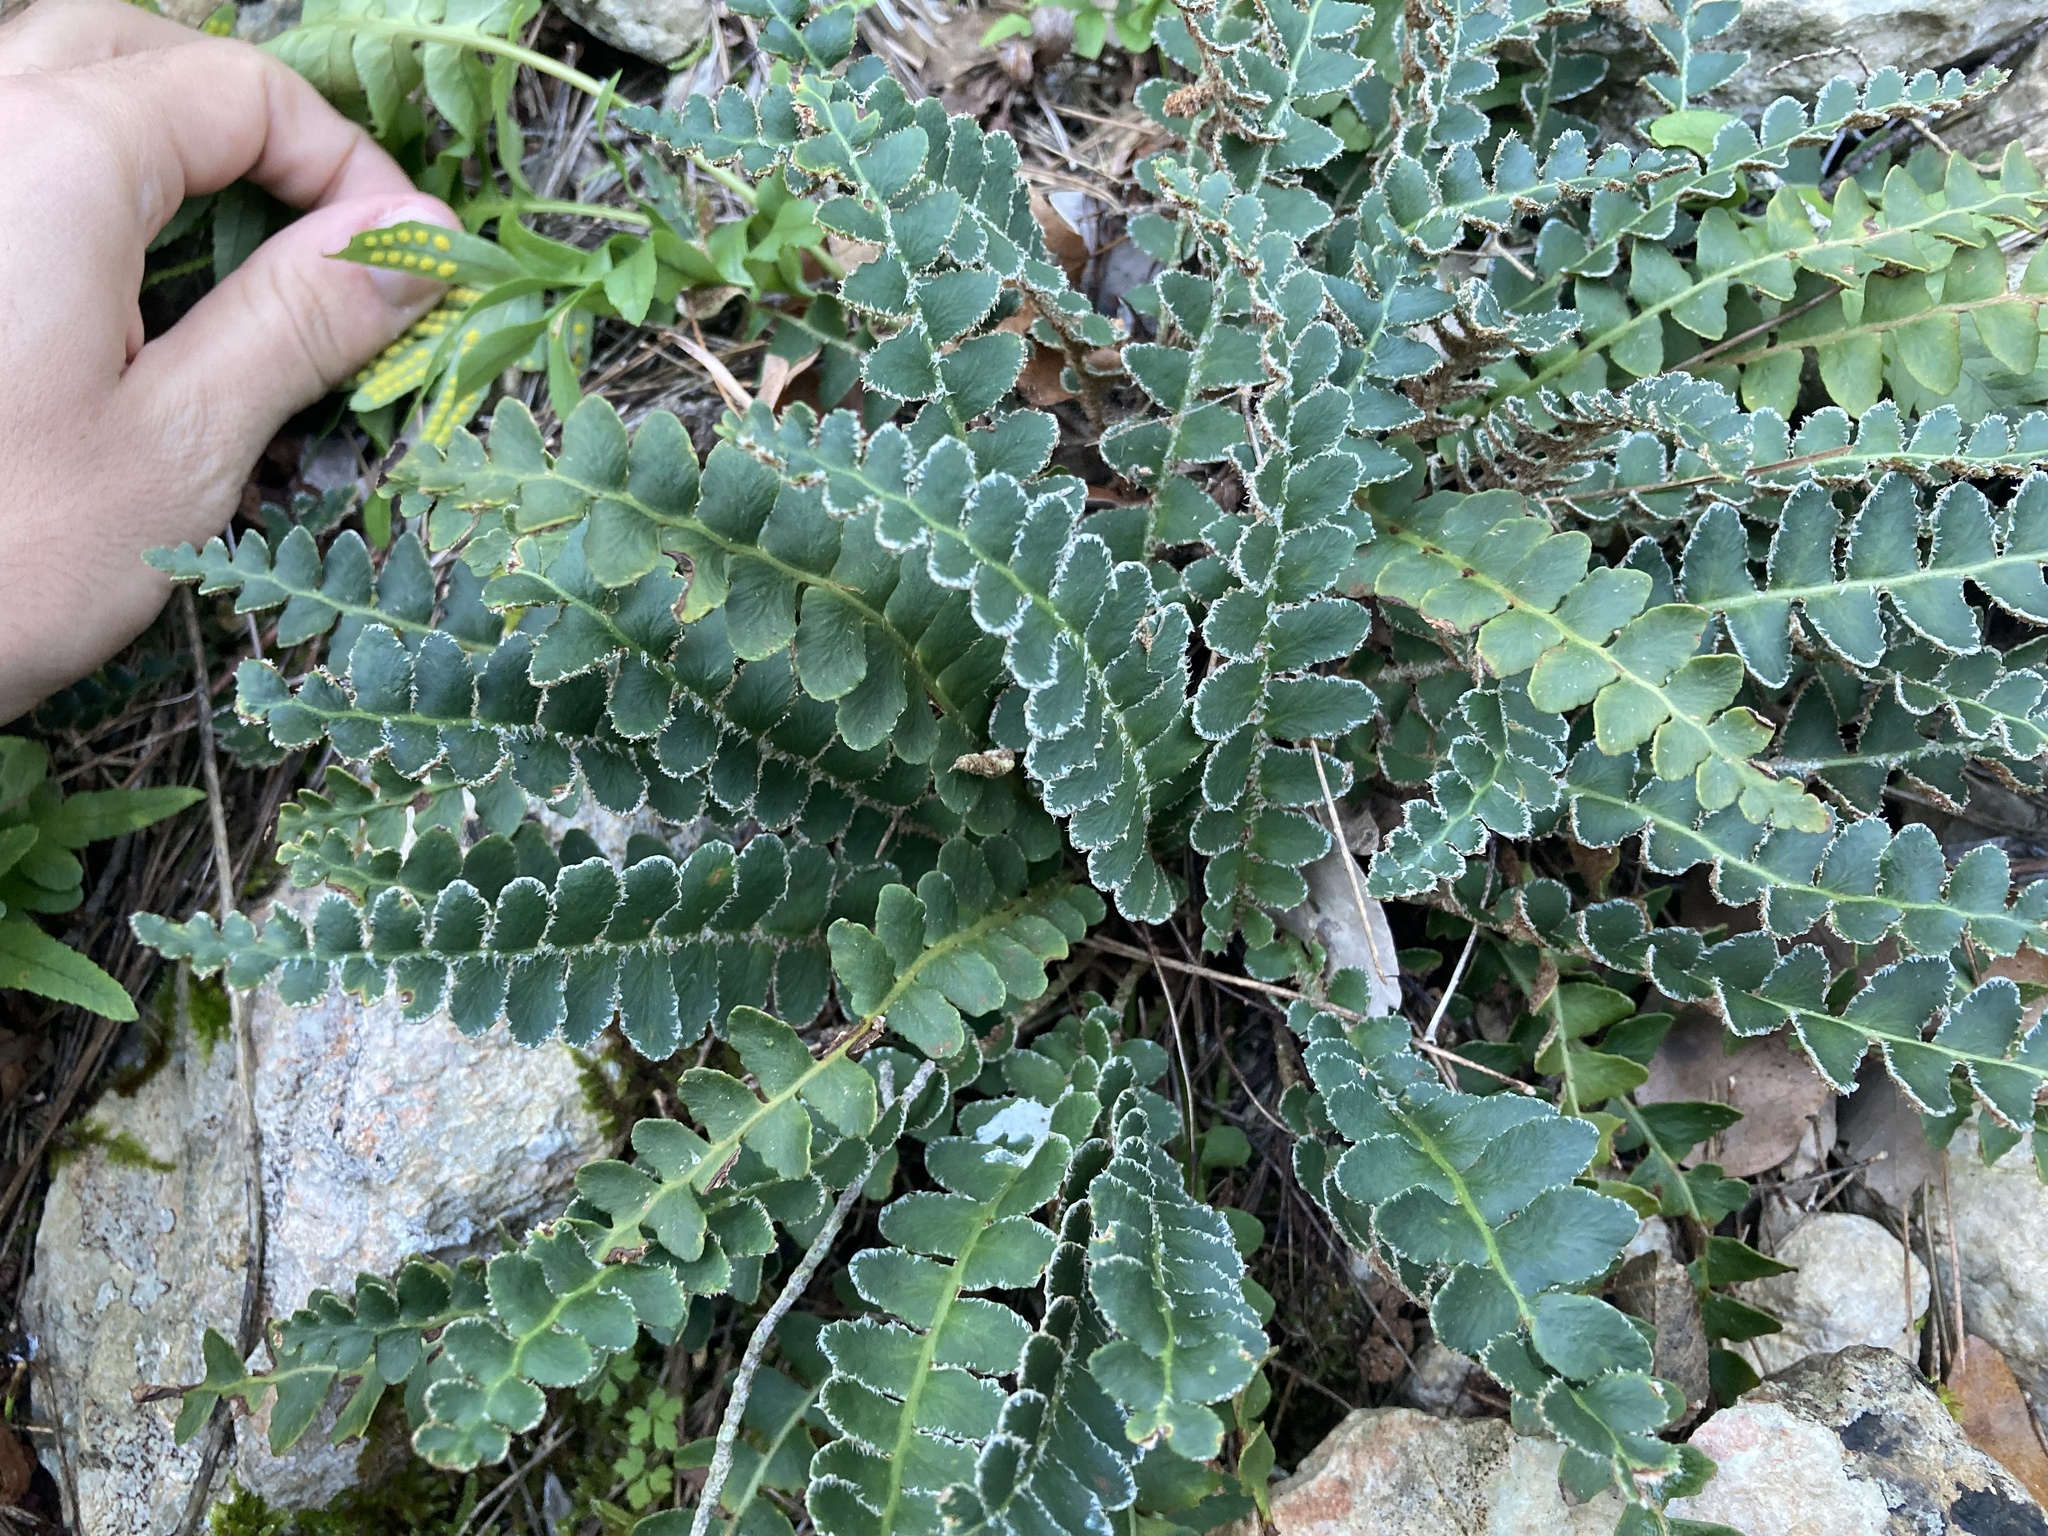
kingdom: Plantae
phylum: Tracheophyta
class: Polypodiopsida
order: Polypodiales
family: Aspleniaceae
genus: Asplenium
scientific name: Asplenium ceterach
